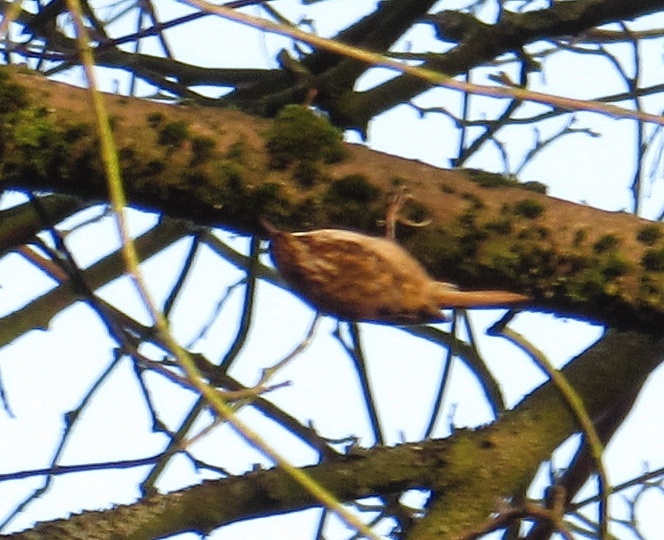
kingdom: Animalia
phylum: Chordata
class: Aves
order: Passeriformes
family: Certhiidae
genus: Certhia
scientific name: Certhia familiaris
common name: Eurasian treecreeper
